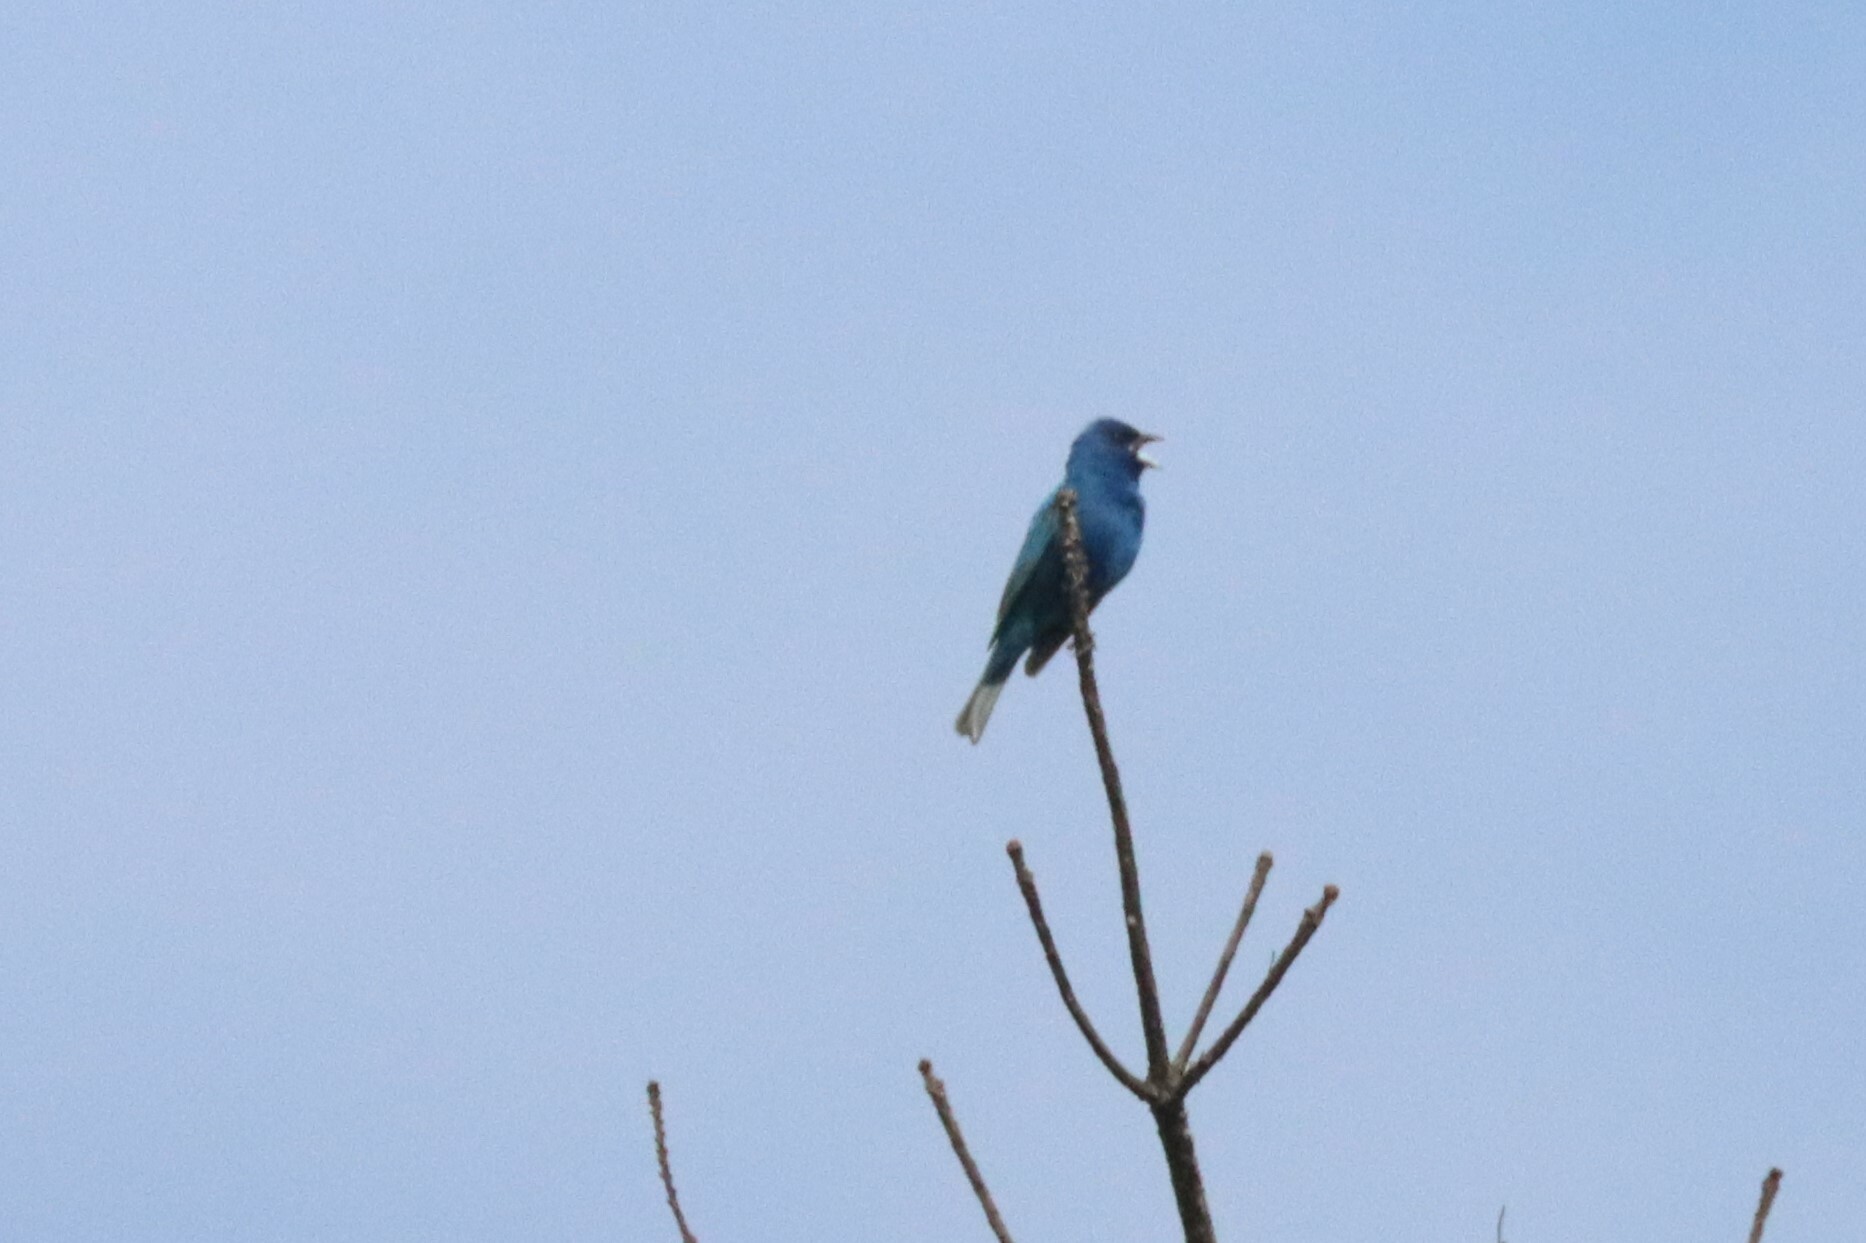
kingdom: Animalia
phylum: Chordata
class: Aves
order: Passeriformes
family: Cardinalidae
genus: Passerina
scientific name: Passerina cyanea
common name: Indigo bunting
